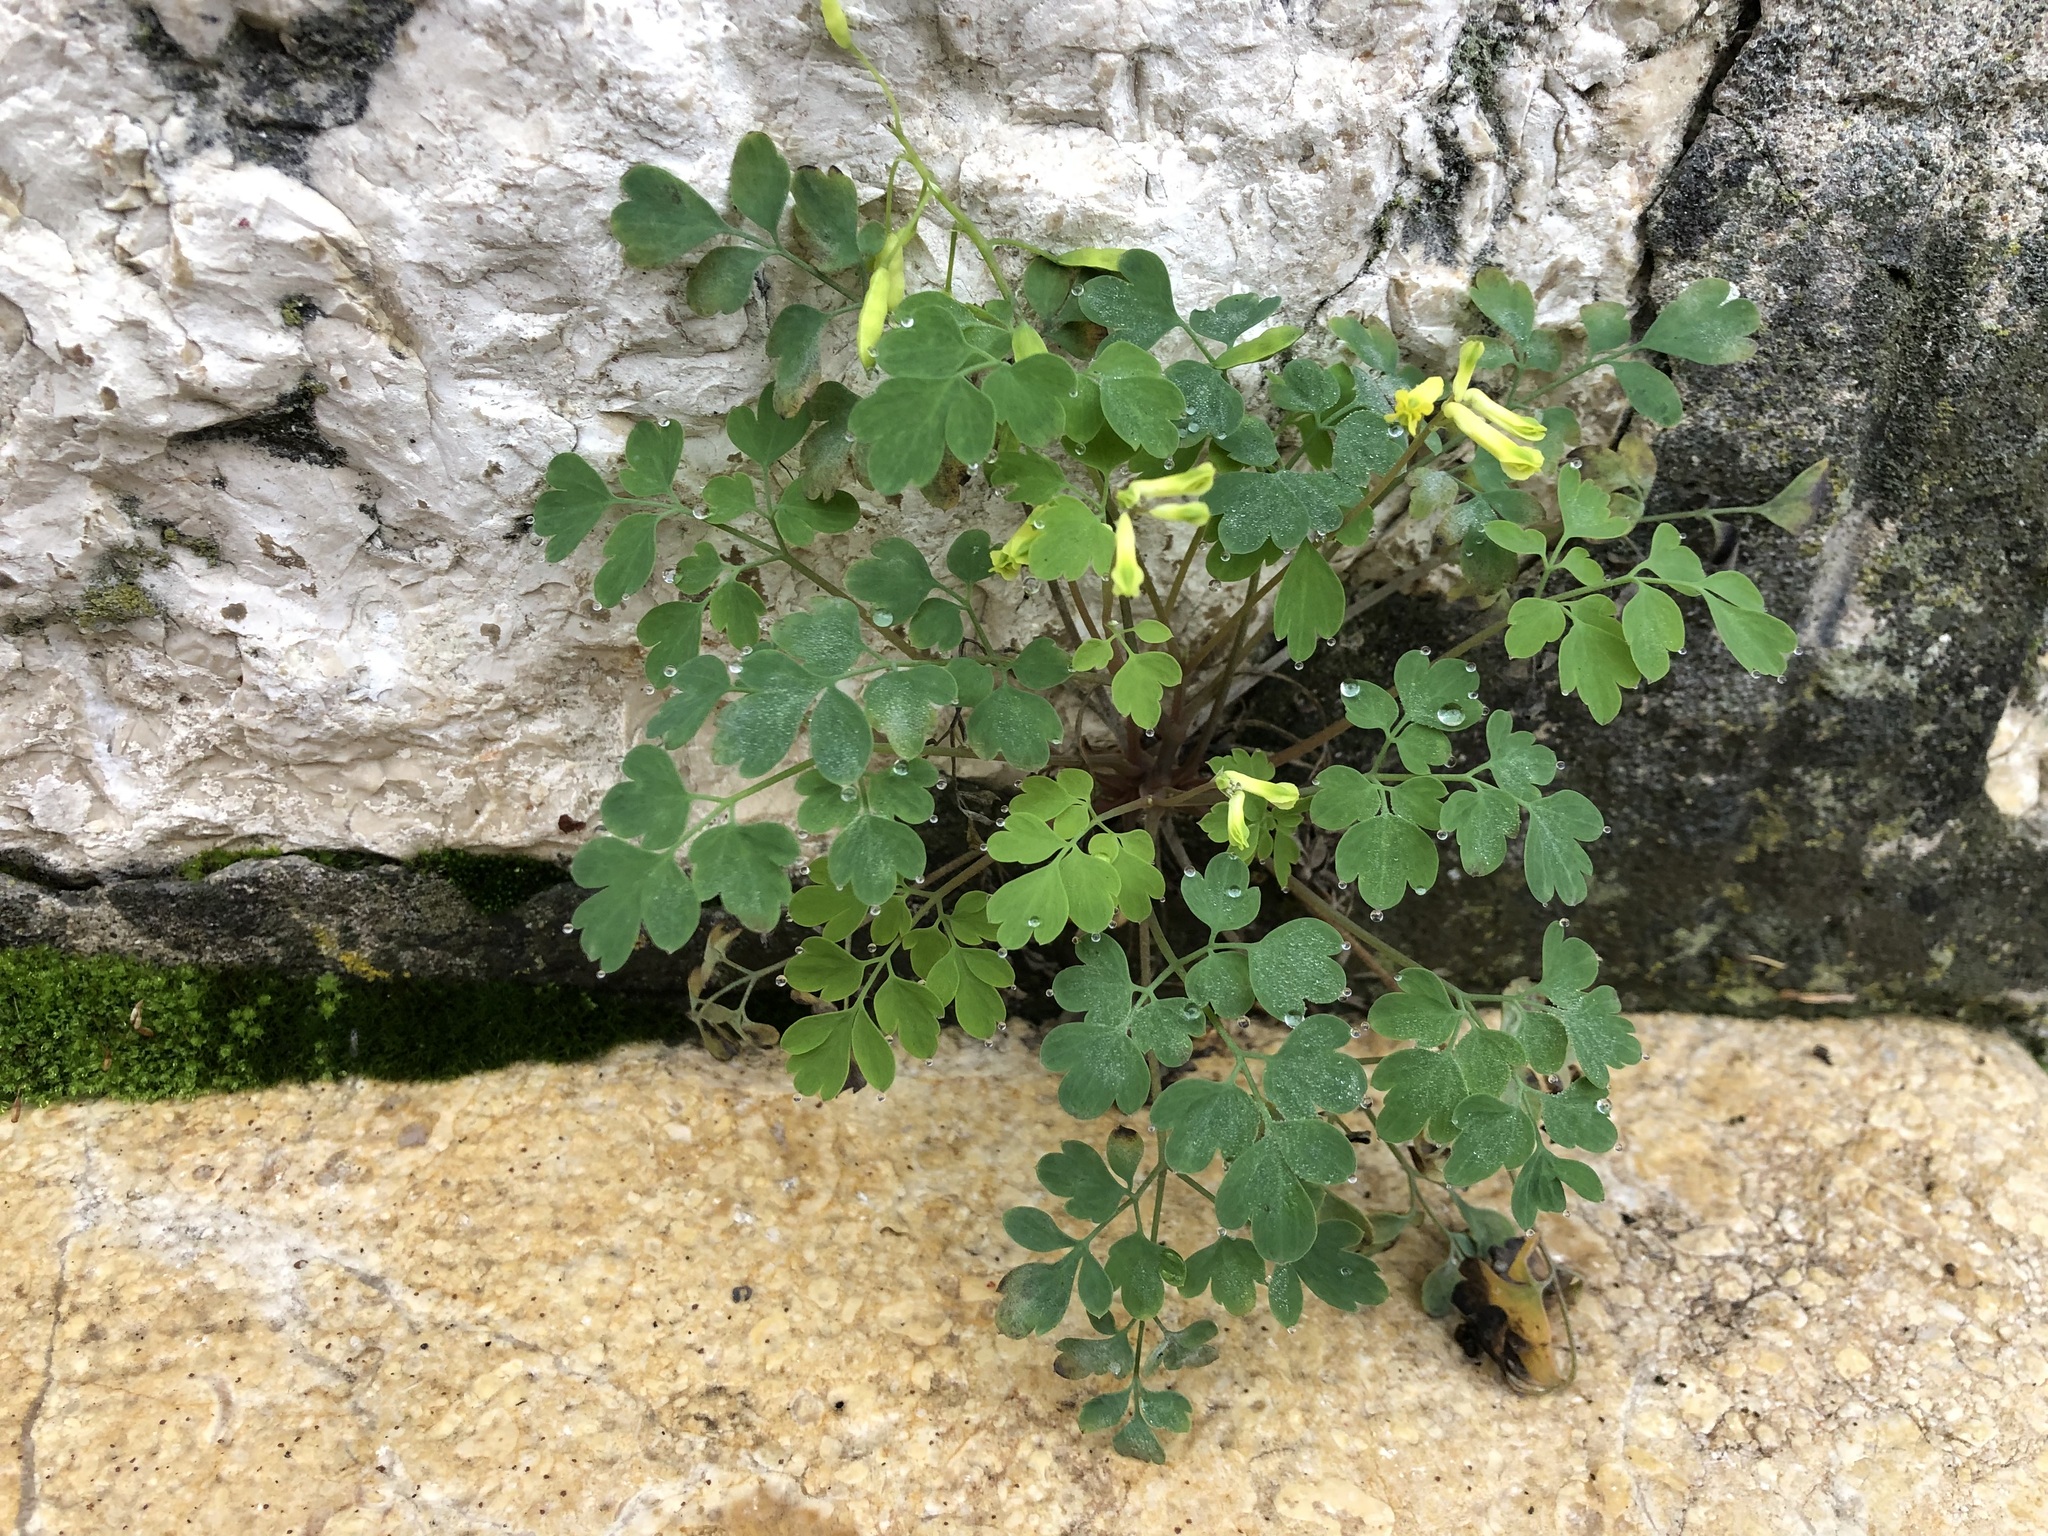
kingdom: Plantae
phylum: Tracheophyta
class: Magnoliopsida
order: Ranunculales
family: Papaveraceae
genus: Pseudofumaria
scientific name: Pseudofumaria lutea
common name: Yellow corydalis
